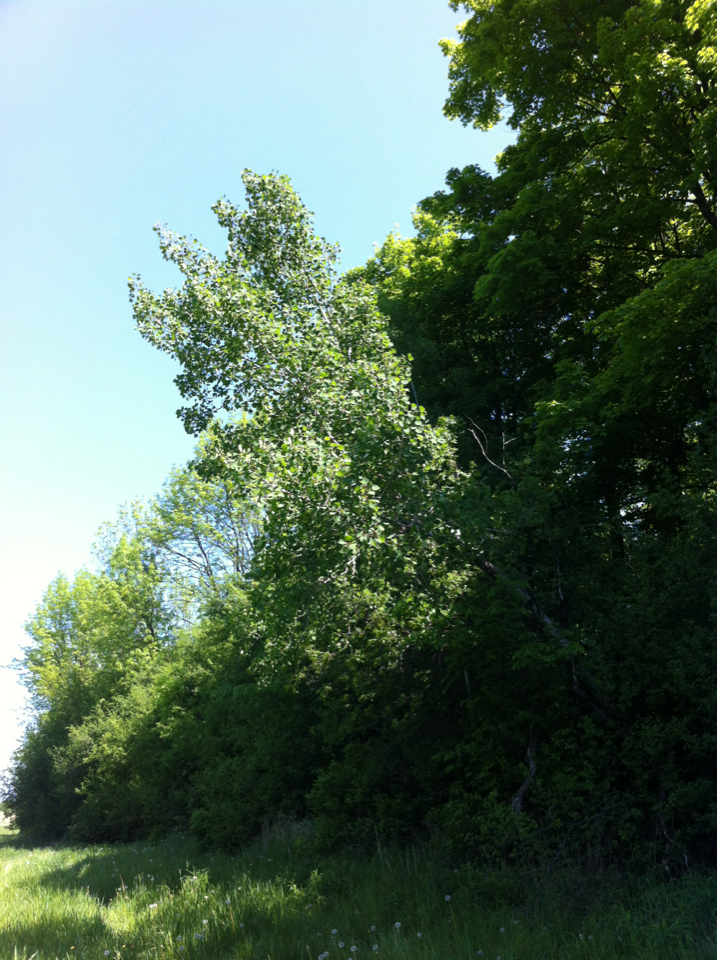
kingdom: Plantae
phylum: Tracheophyta
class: Magnoliopsida
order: Malpighiales
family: Salicaceae
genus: Populus
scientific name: Populus tremuloides
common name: Quaking aspen
